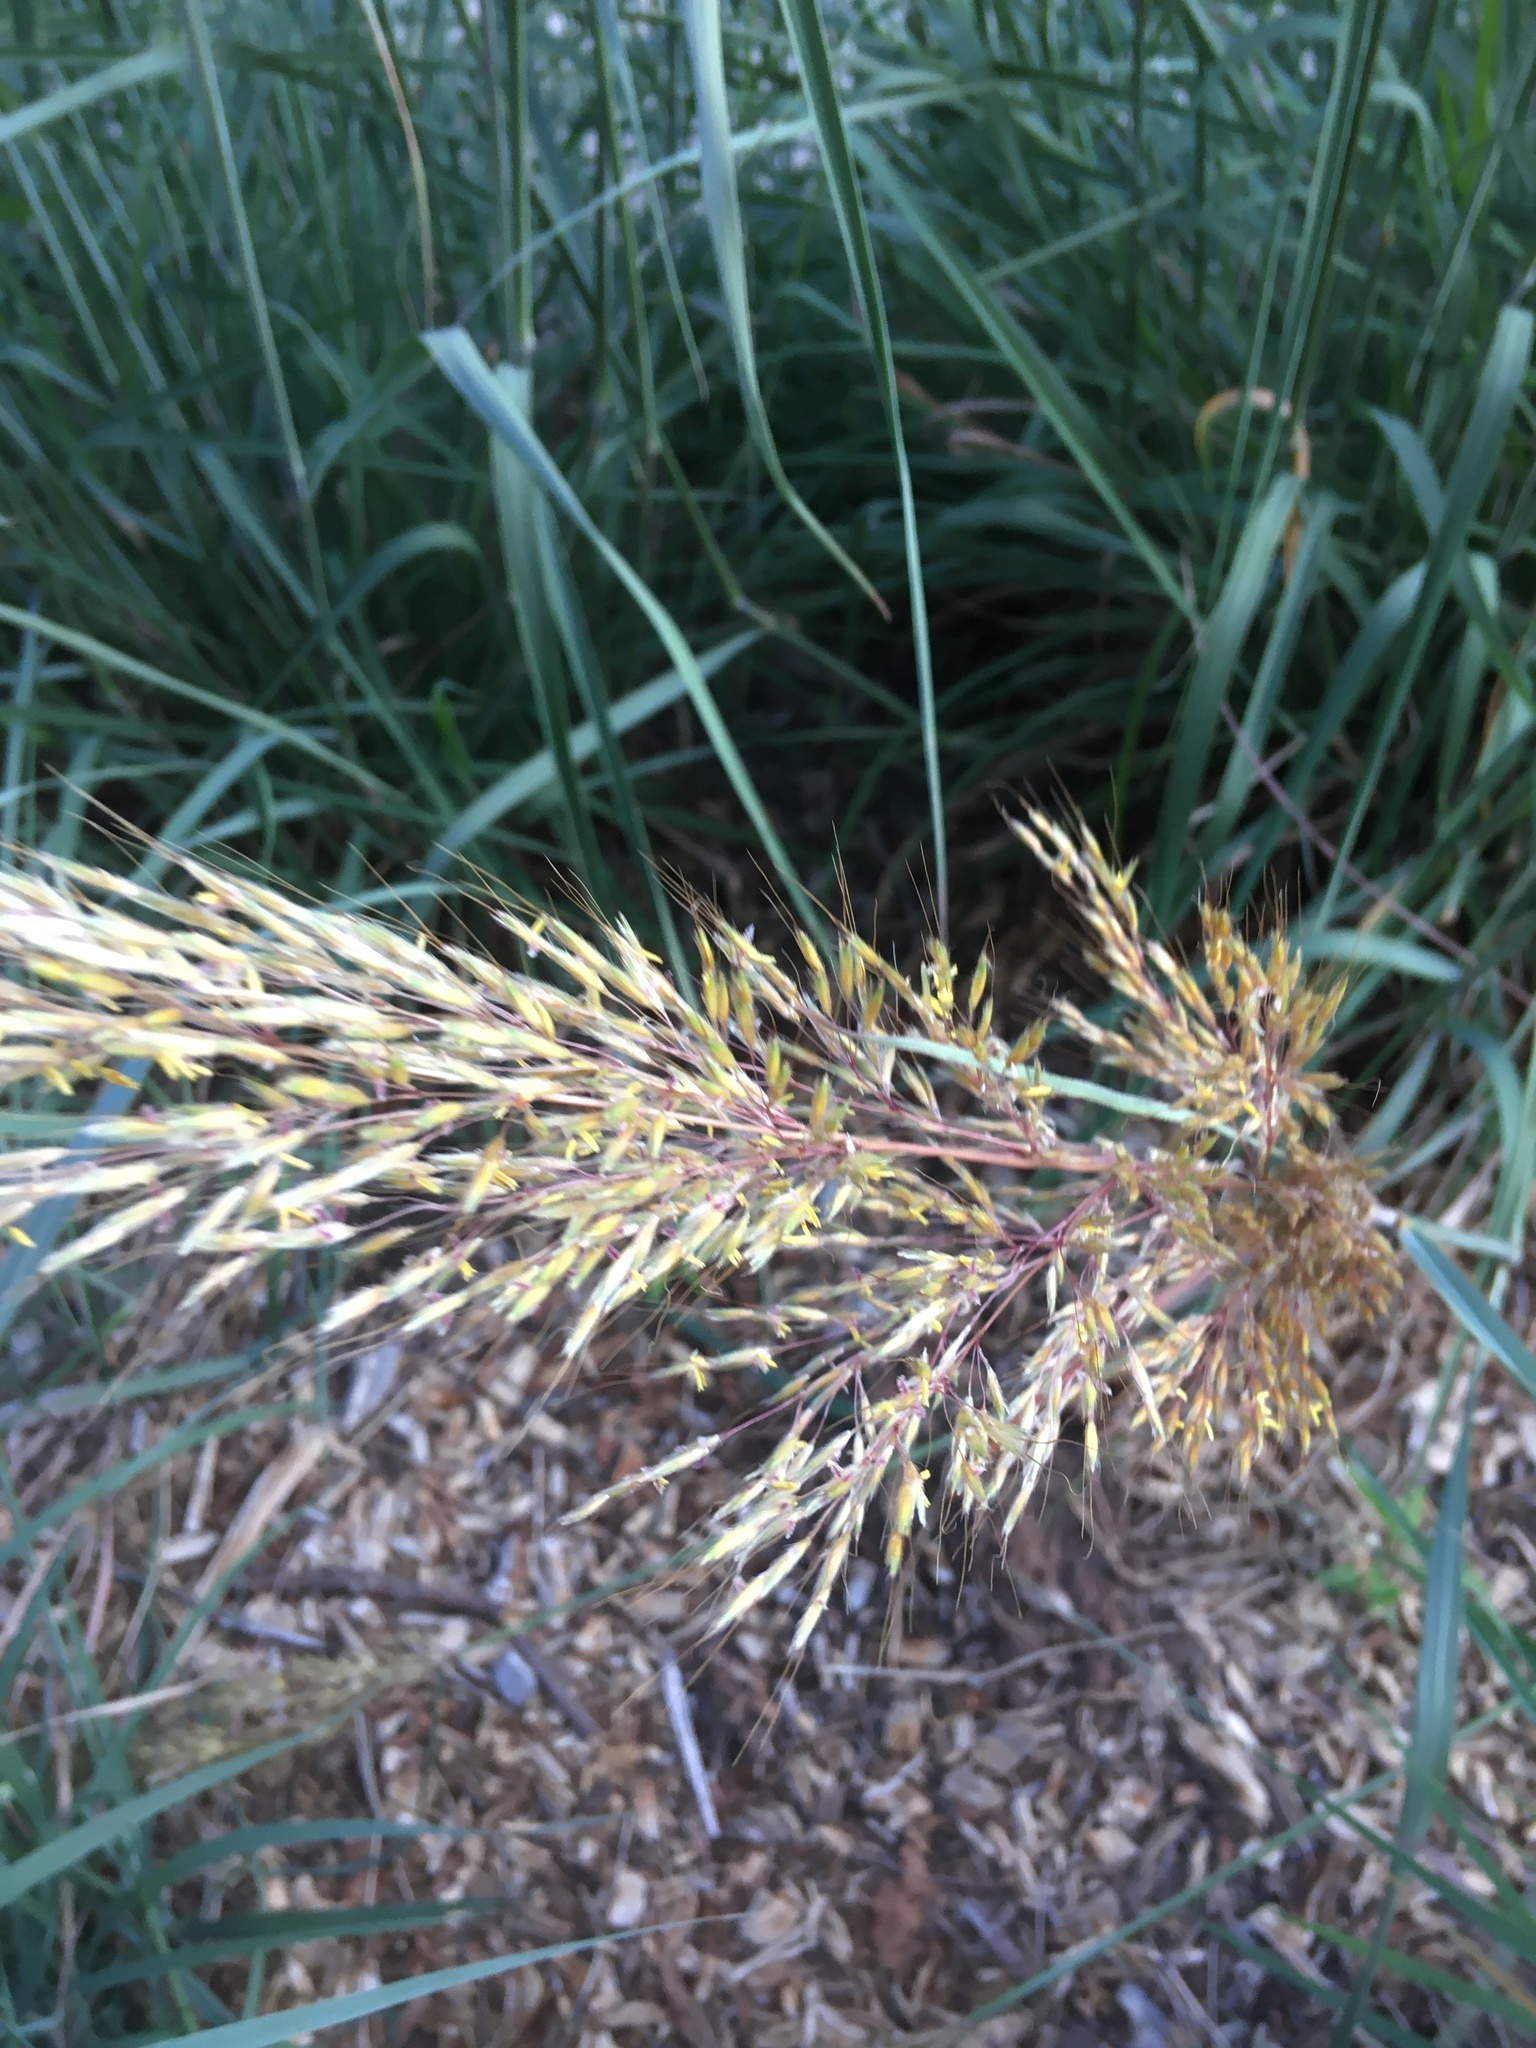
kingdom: Plantae
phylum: Tracheophyta
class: Liliopsida
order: Poales
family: Poaceae
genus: Sorghastrum
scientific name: Sorghastrum nutans
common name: Indian grass
